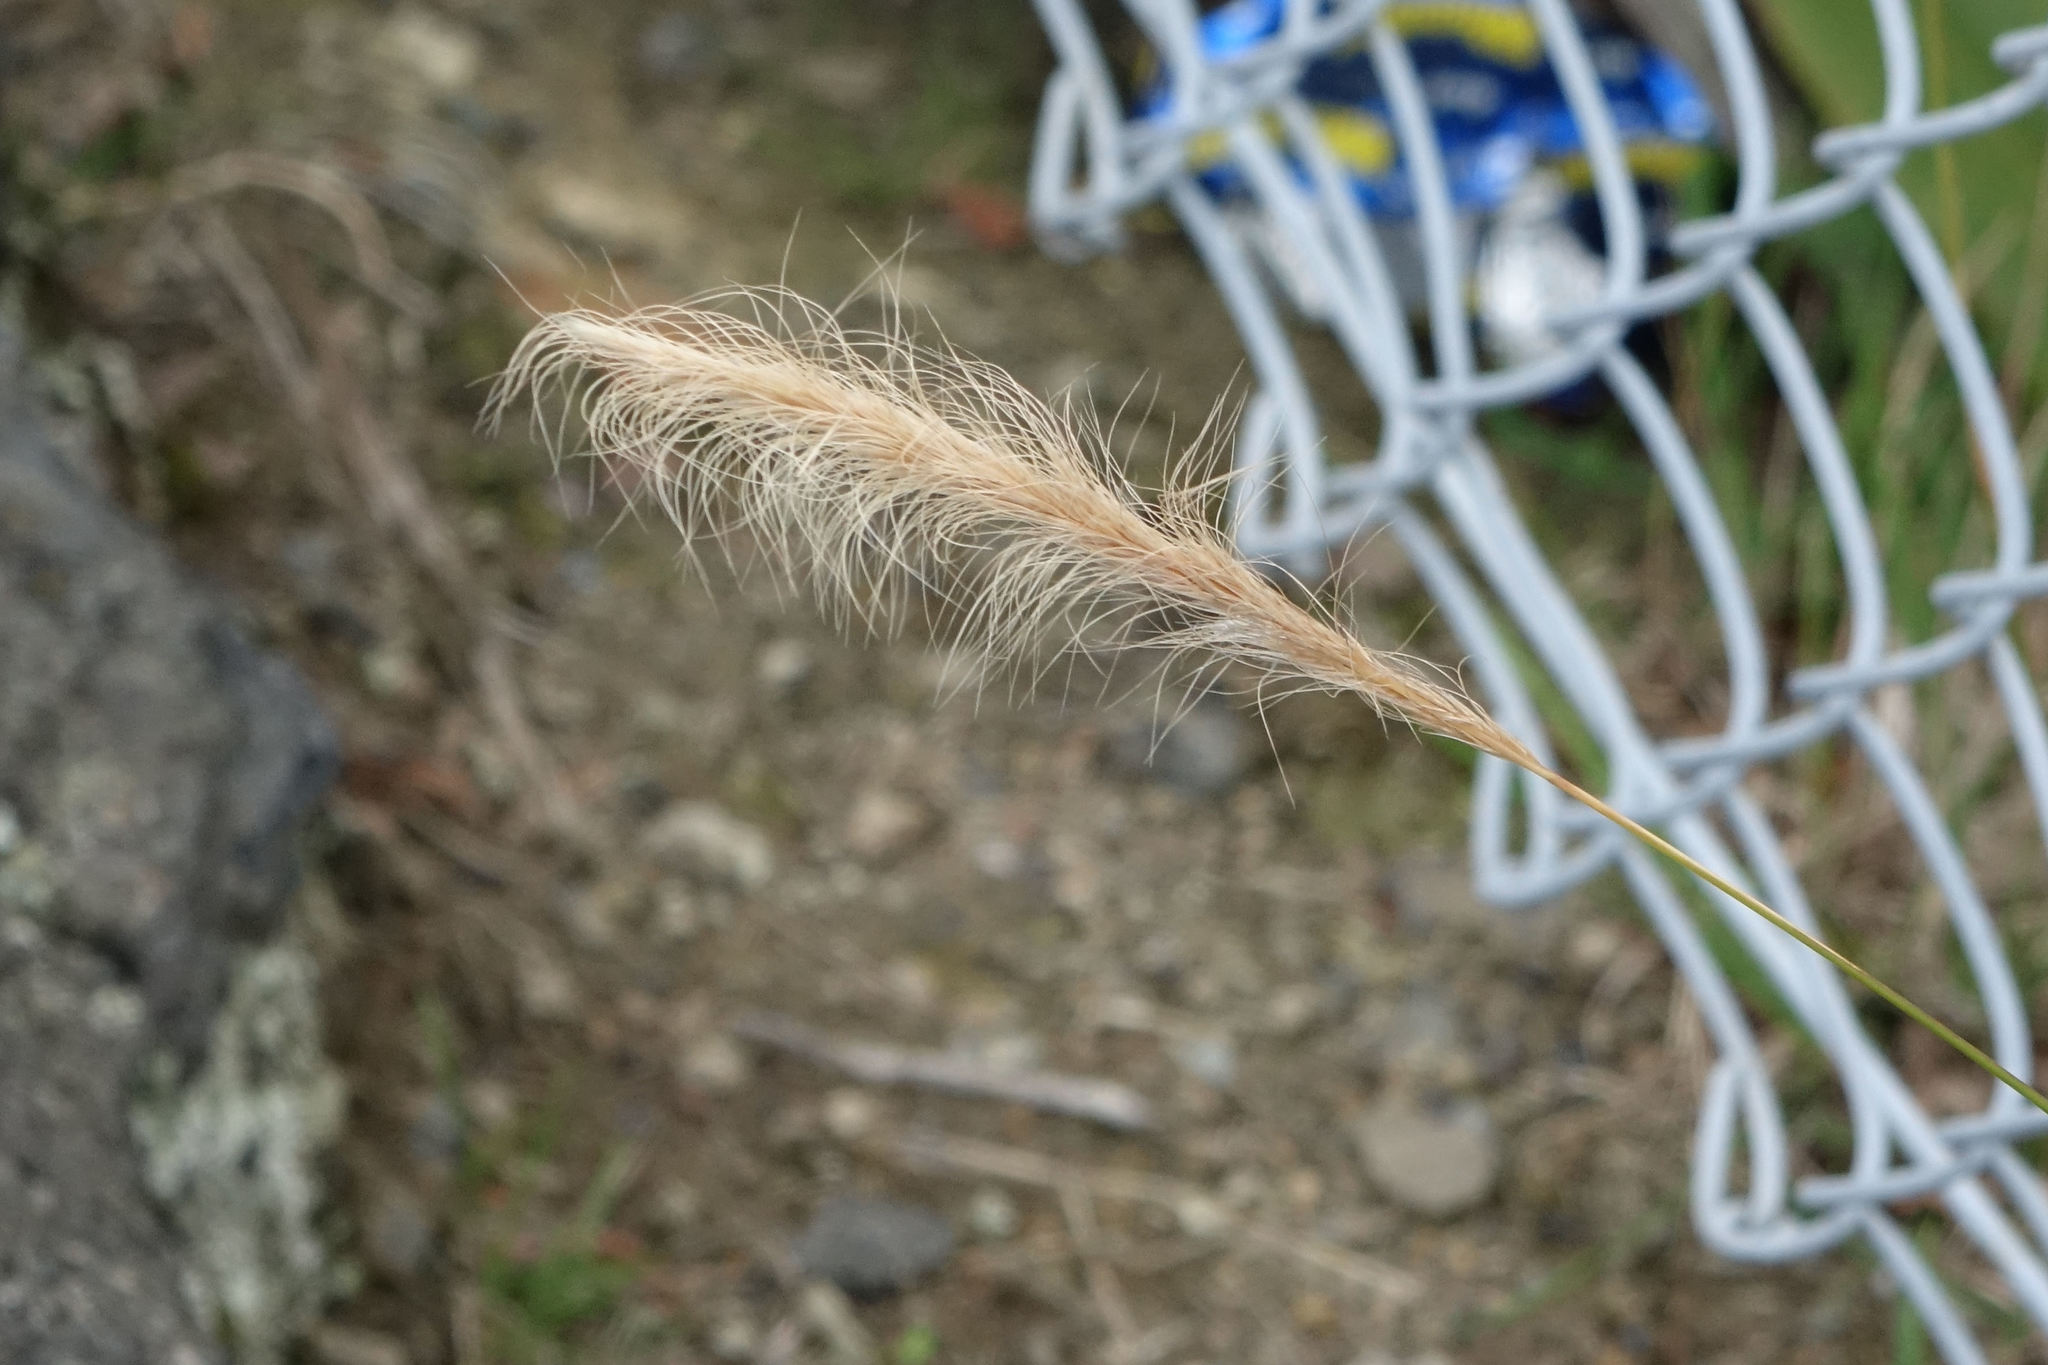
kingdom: Plantae
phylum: Tracheophyta
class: Liliopsida
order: Poales
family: Poaceae
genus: Dichelachne
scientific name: Dichelachne crinita
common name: Clovenfoot plumegrass
